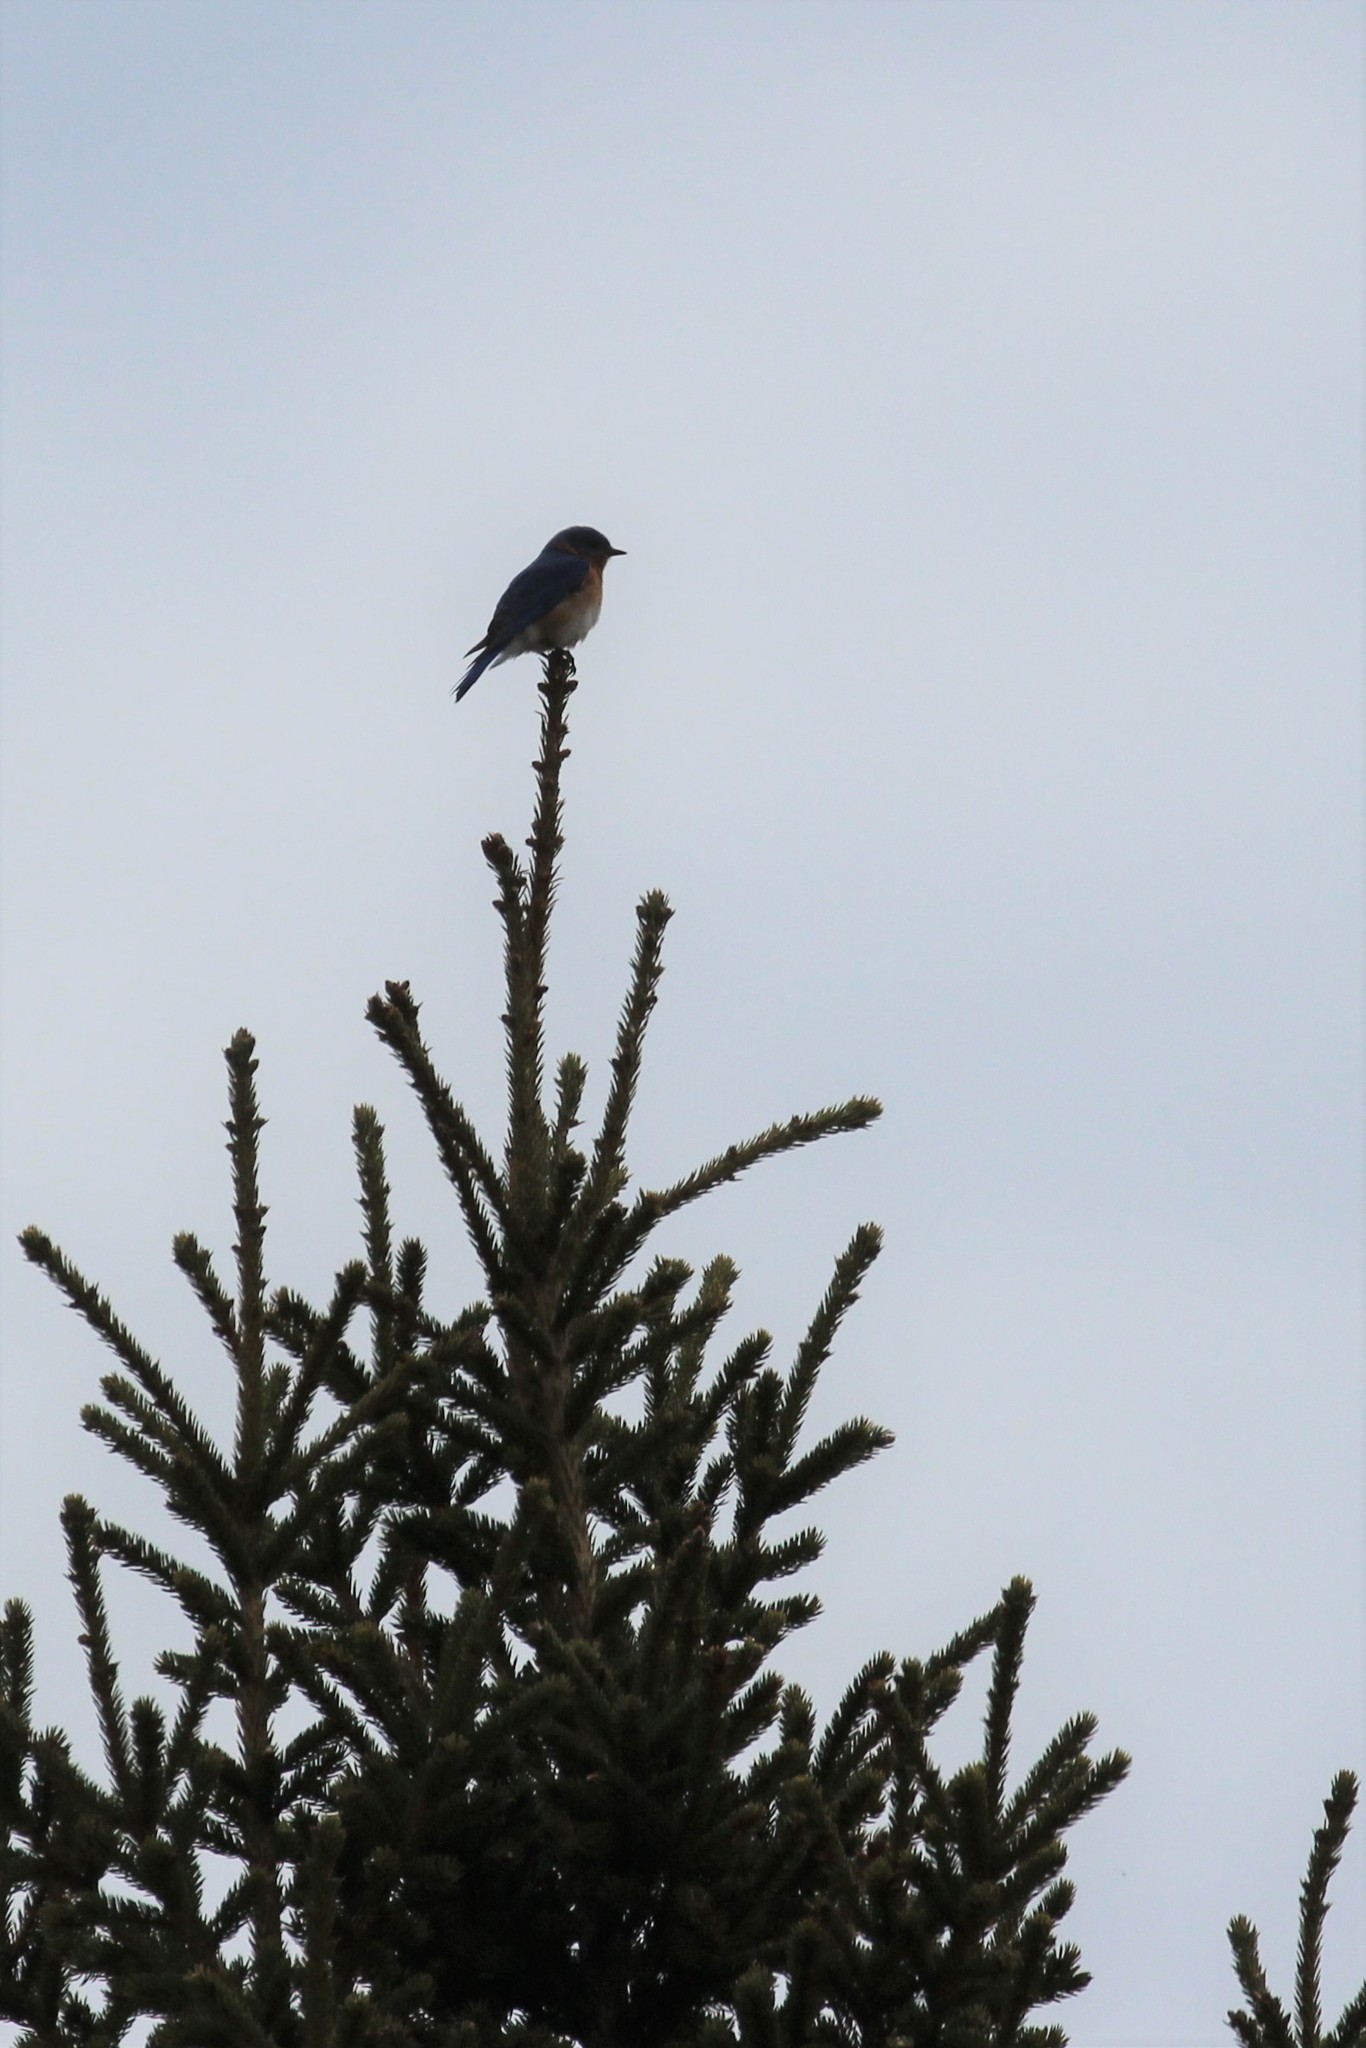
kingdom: Animalia
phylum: Chordata
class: Aves
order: Passeriformes
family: Turdidae
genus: Sialia
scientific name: Sialia sialis
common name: Eastern bluebird
